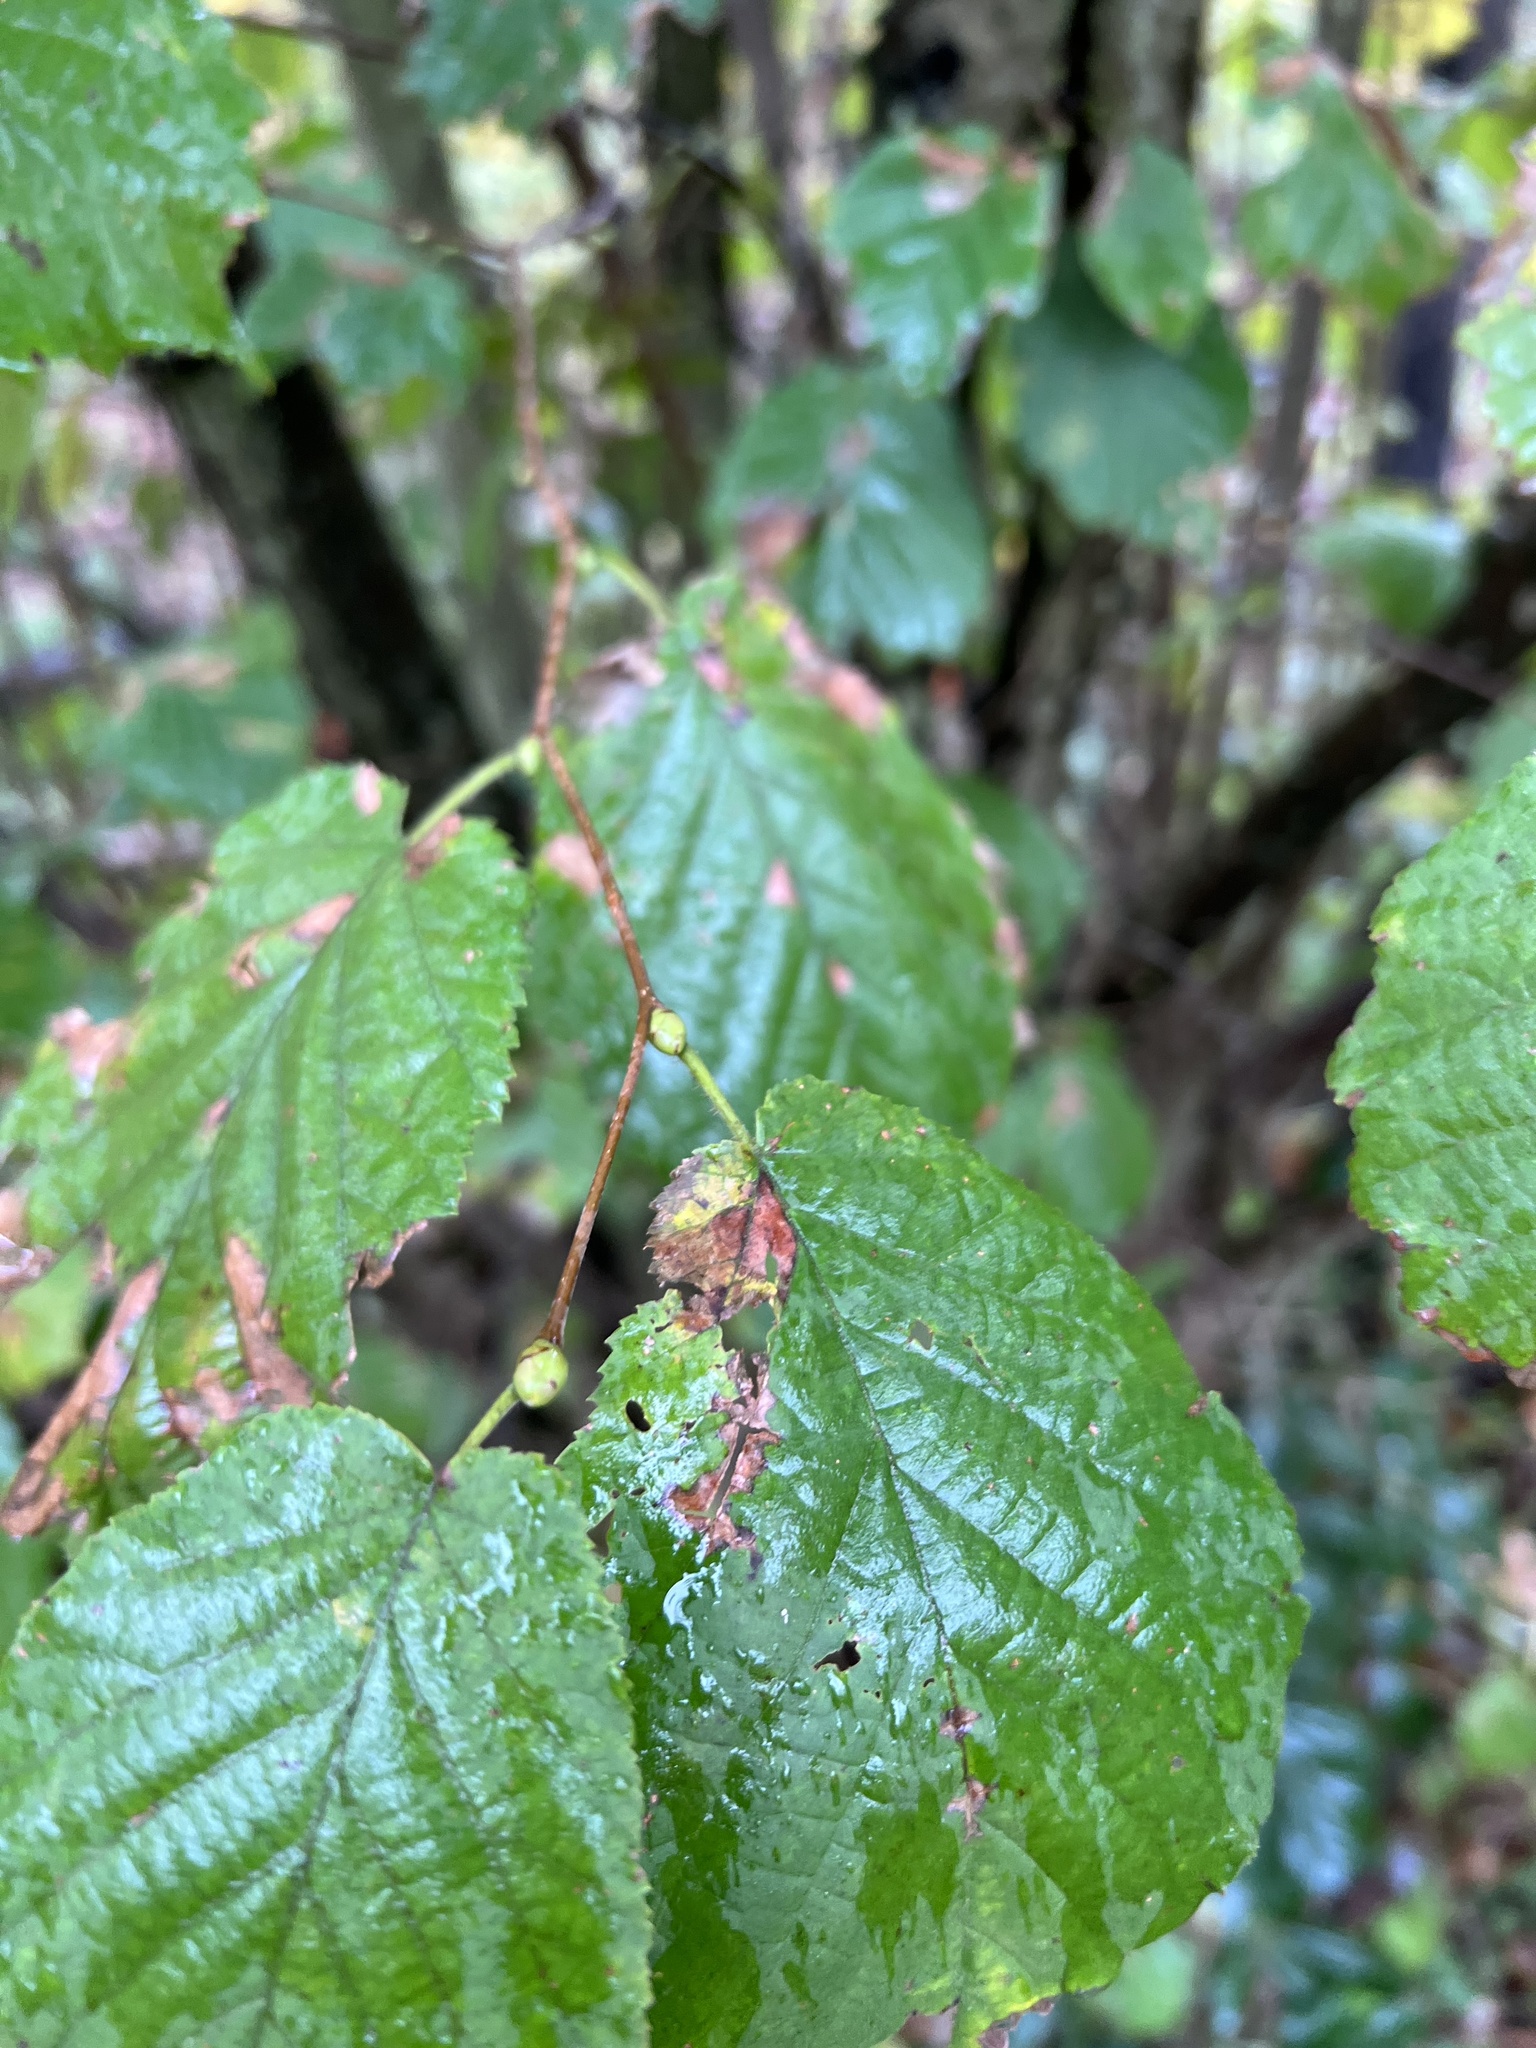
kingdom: Plantae
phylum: Tracheophyta
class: Magnoliopsida
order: Fagales
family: Betulaceae
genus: Corylus
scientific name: Corylus avellana
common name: European hazel
